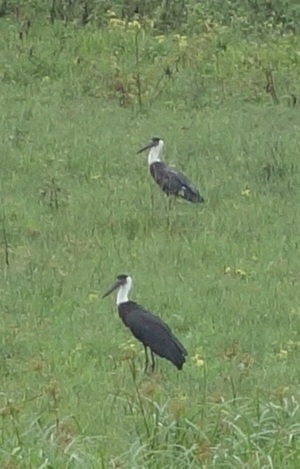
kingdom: Animalia
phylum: Chordata
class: Aves
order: Ciconiiformes
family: Ciconiidae
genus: Ciconia
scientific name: Ciconia episcopus
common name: Woolly-necked stork
